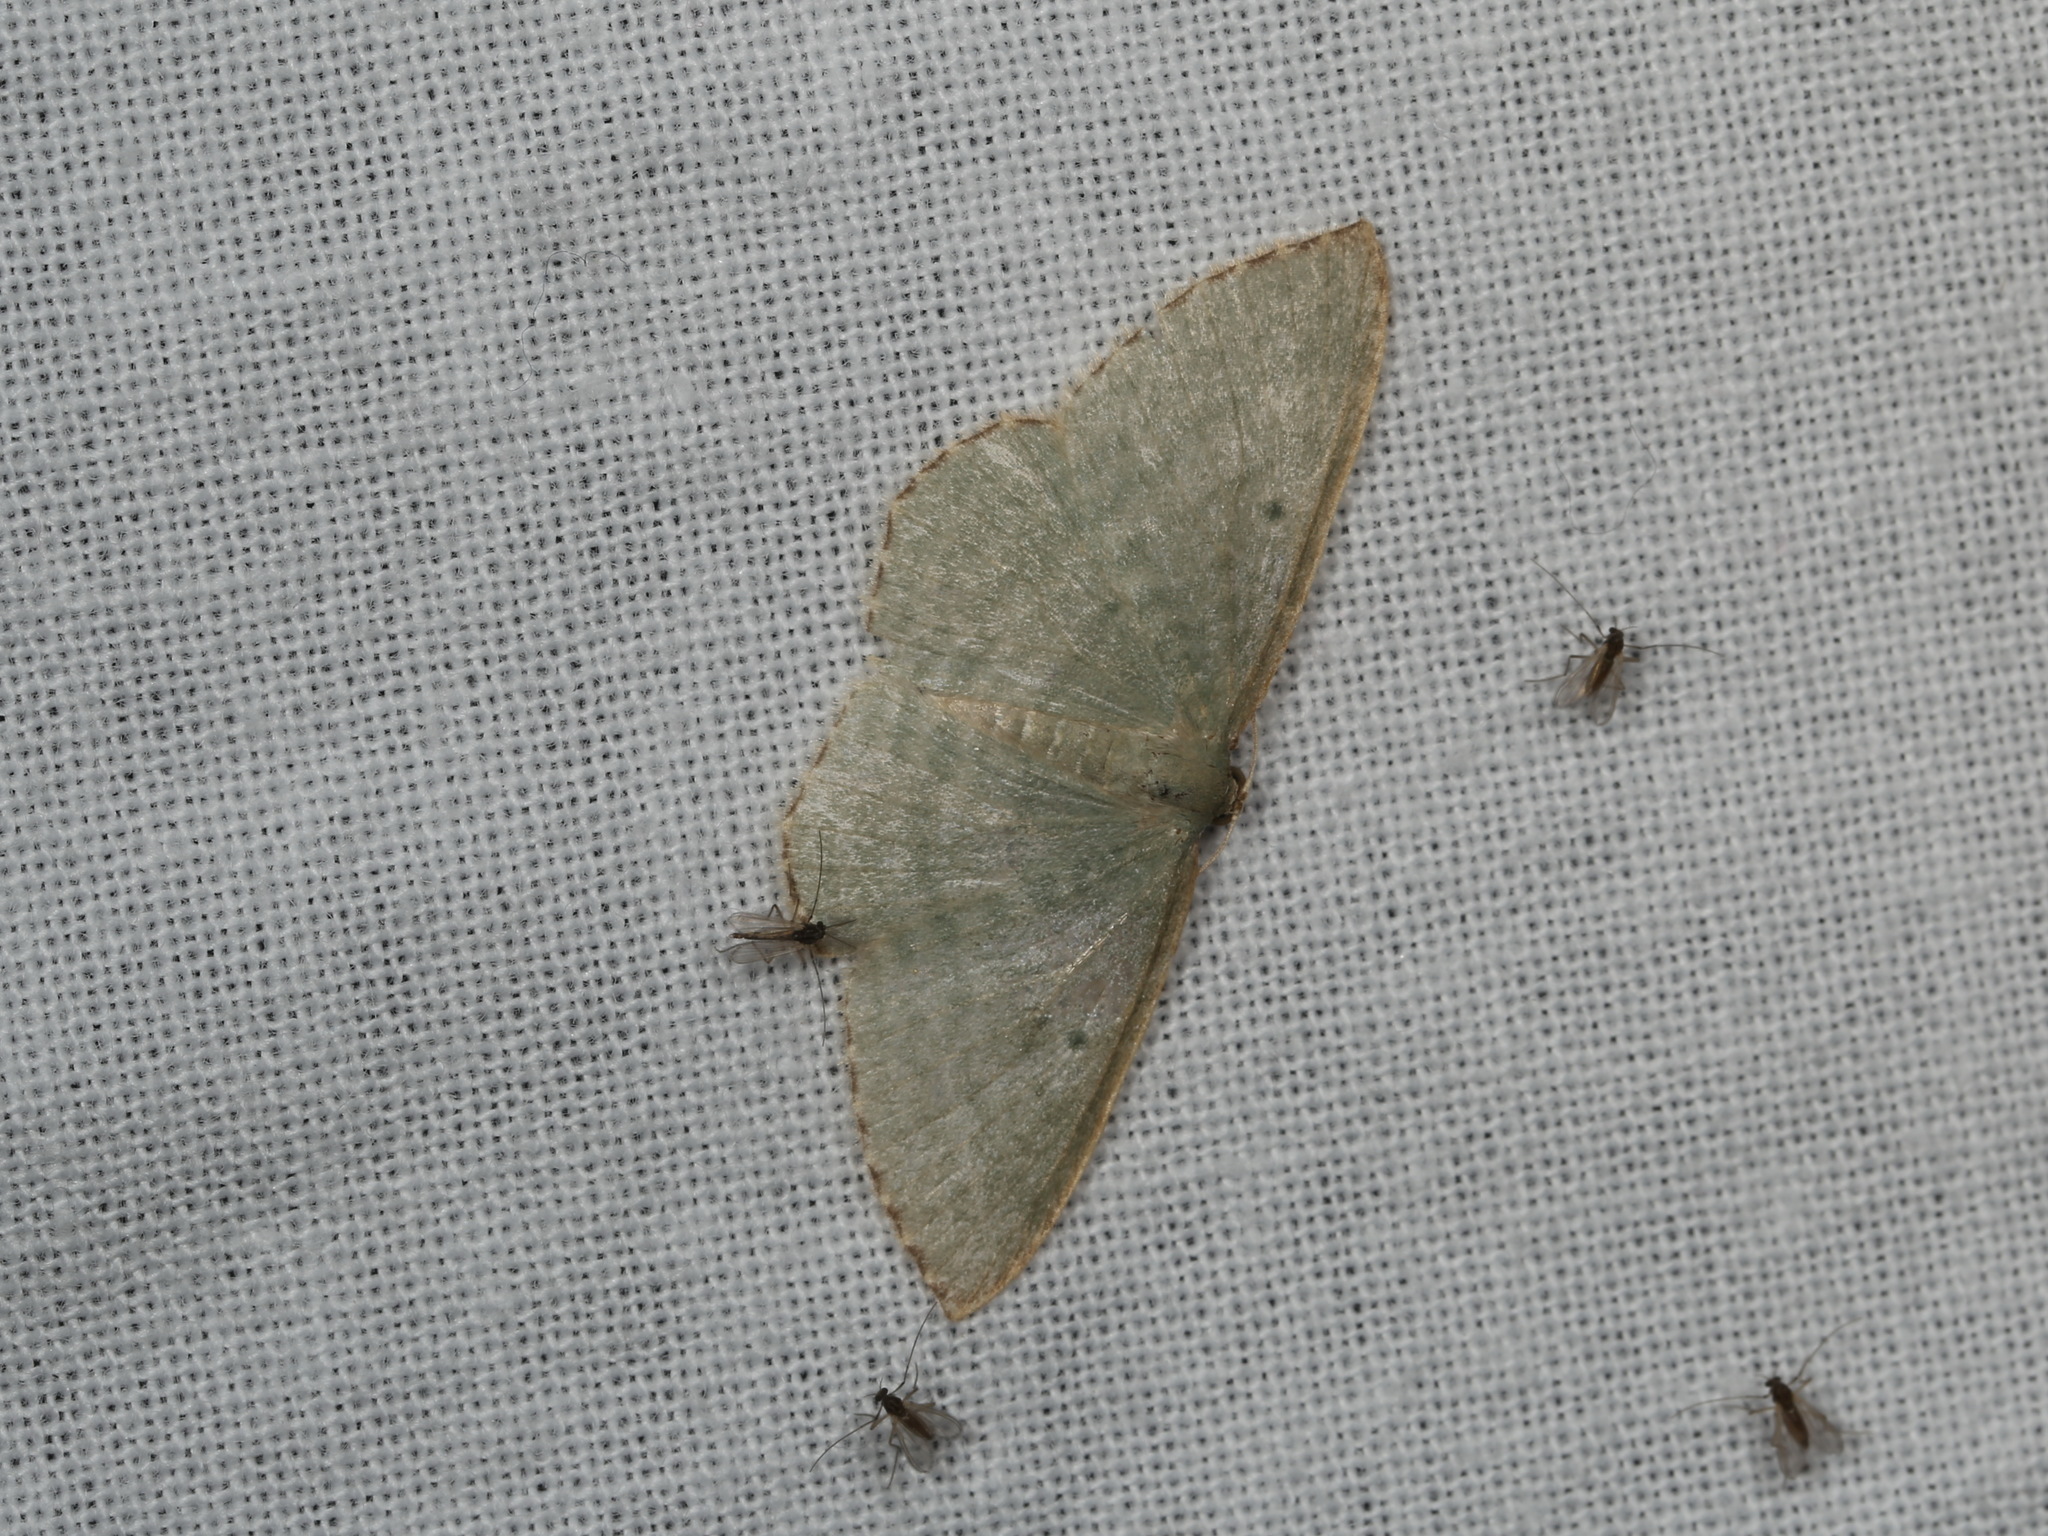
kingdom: Animalia
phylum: Arthropoda
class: Insecta
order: Lepidoptera
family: Geometridae
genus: Poecilasthena
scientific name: Poecilasthena balioloma
